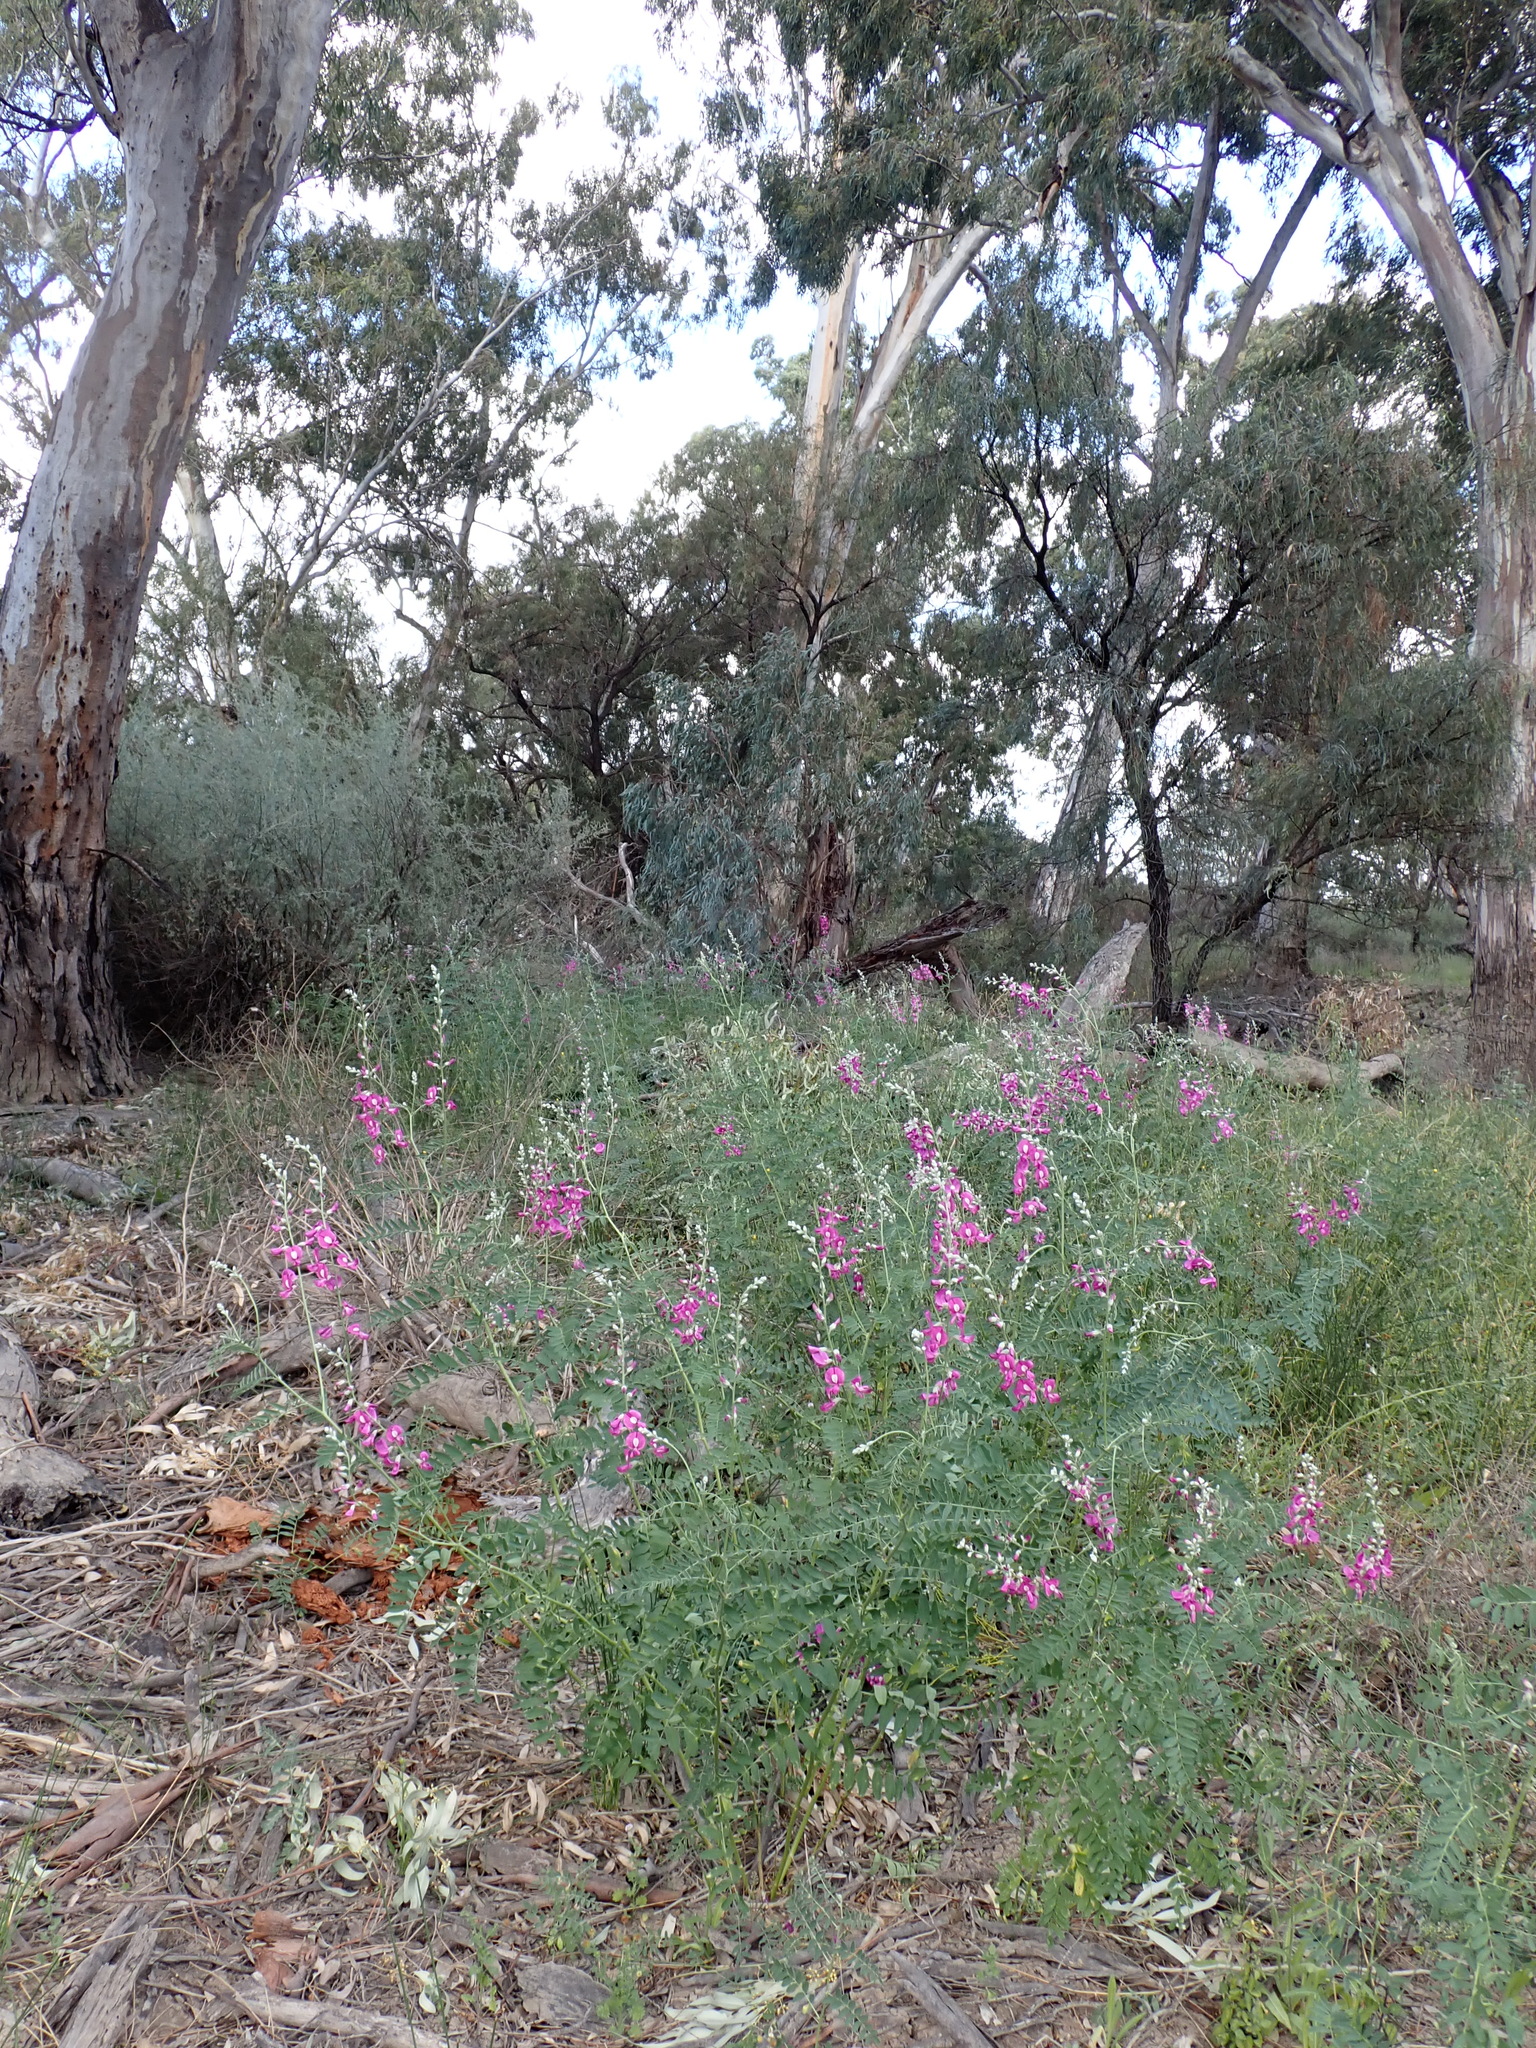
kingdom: Plantae
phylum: Tracheophyta
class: Magnoliopsida
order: Fabales
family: Fabaceae
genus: Swainsona
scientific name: Swainsona greyana
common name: Darling-pea
